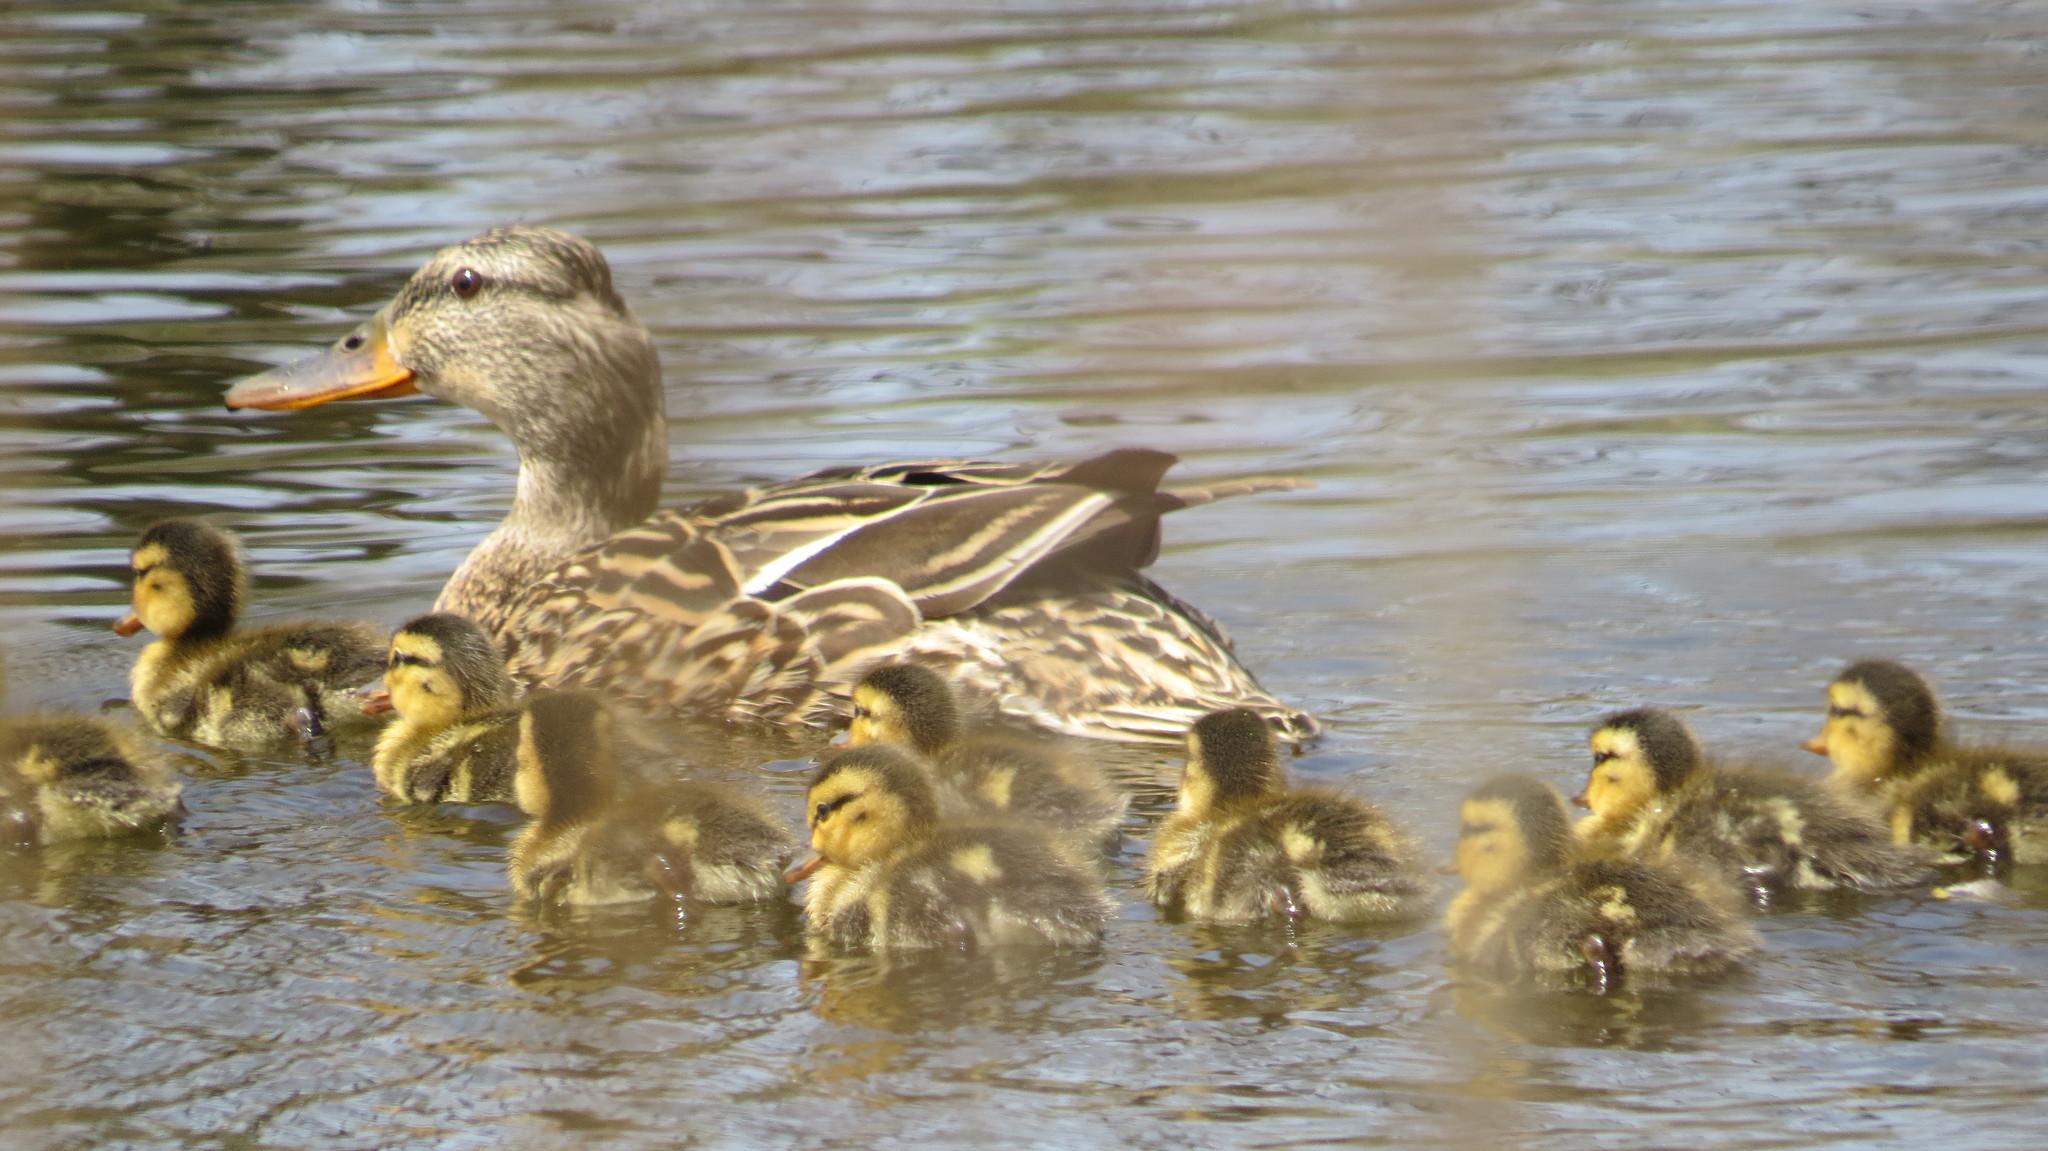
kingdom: Animalia
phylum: Chordata
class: Aves
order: Anseriformes
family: Anatidae
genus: Anas
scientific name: Anas platyrhynchos
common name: Mallard
